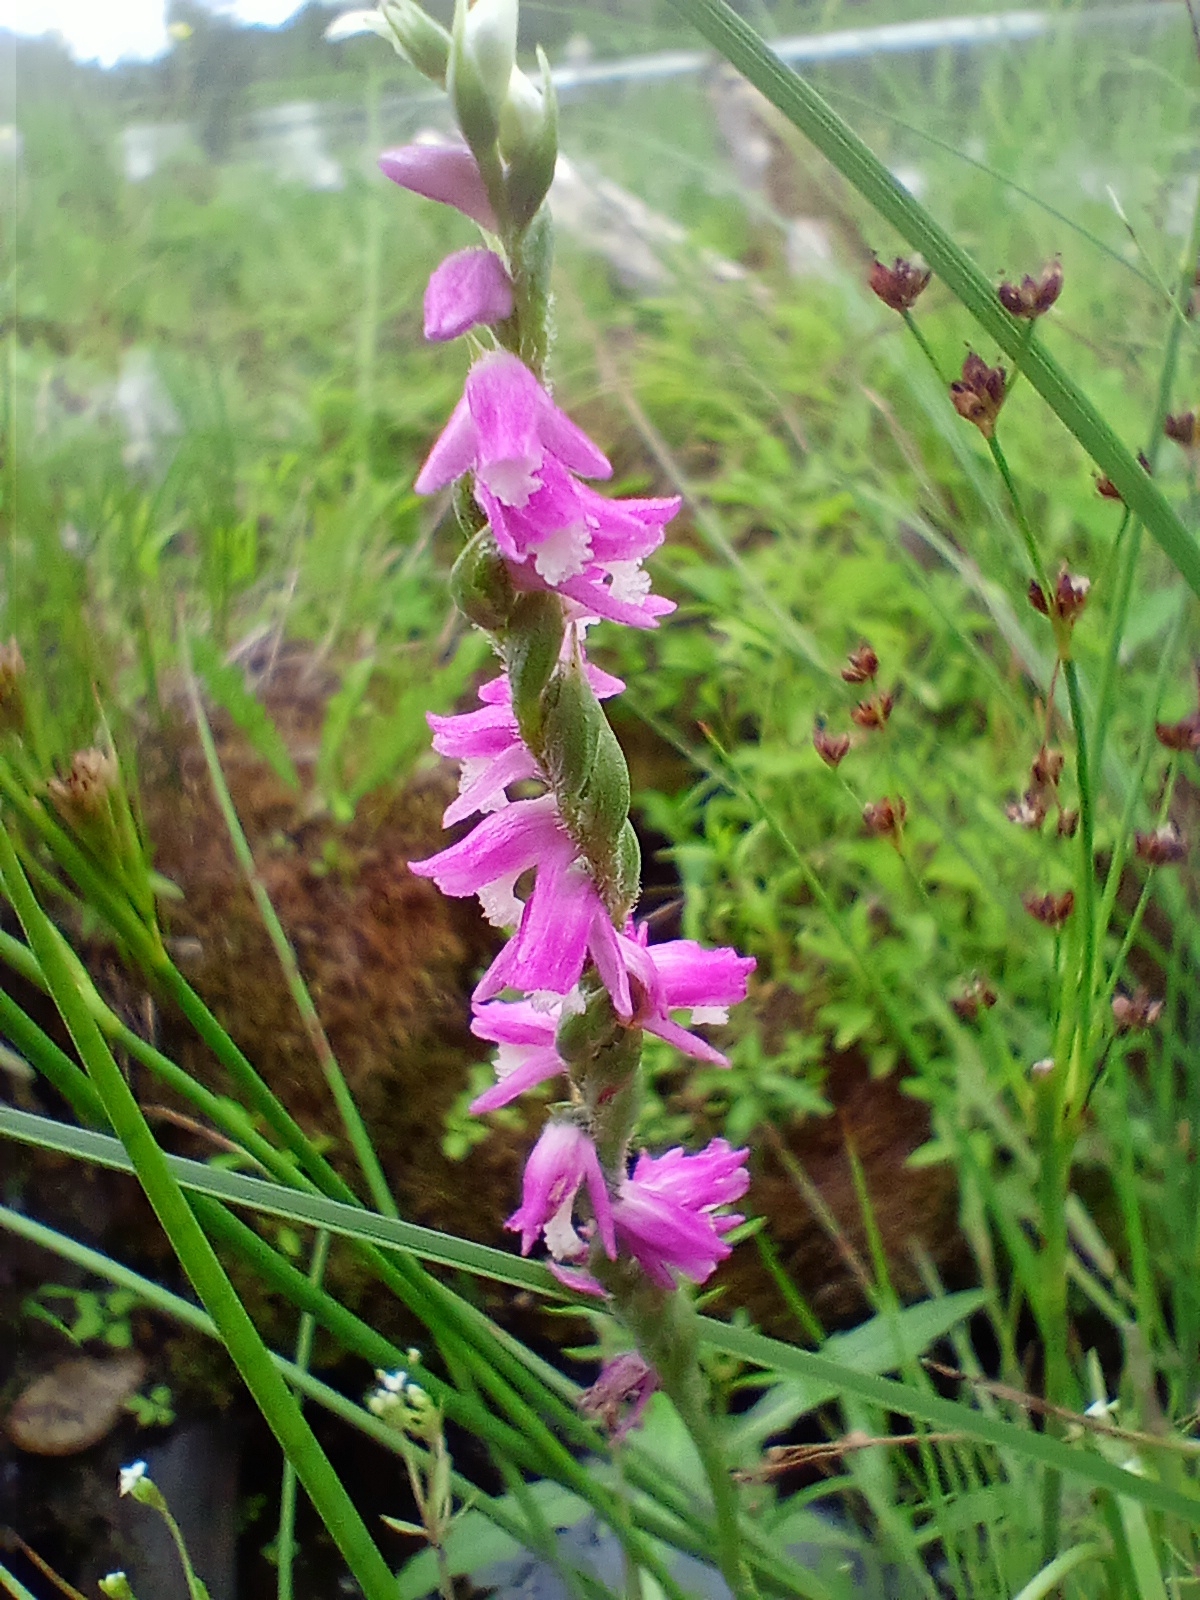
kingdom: Plantae
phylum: Tracheophyta
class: Liliopsida
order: Asparagales
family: Orchidaceae
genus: Spiranthes
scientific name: Spiranthes australis
